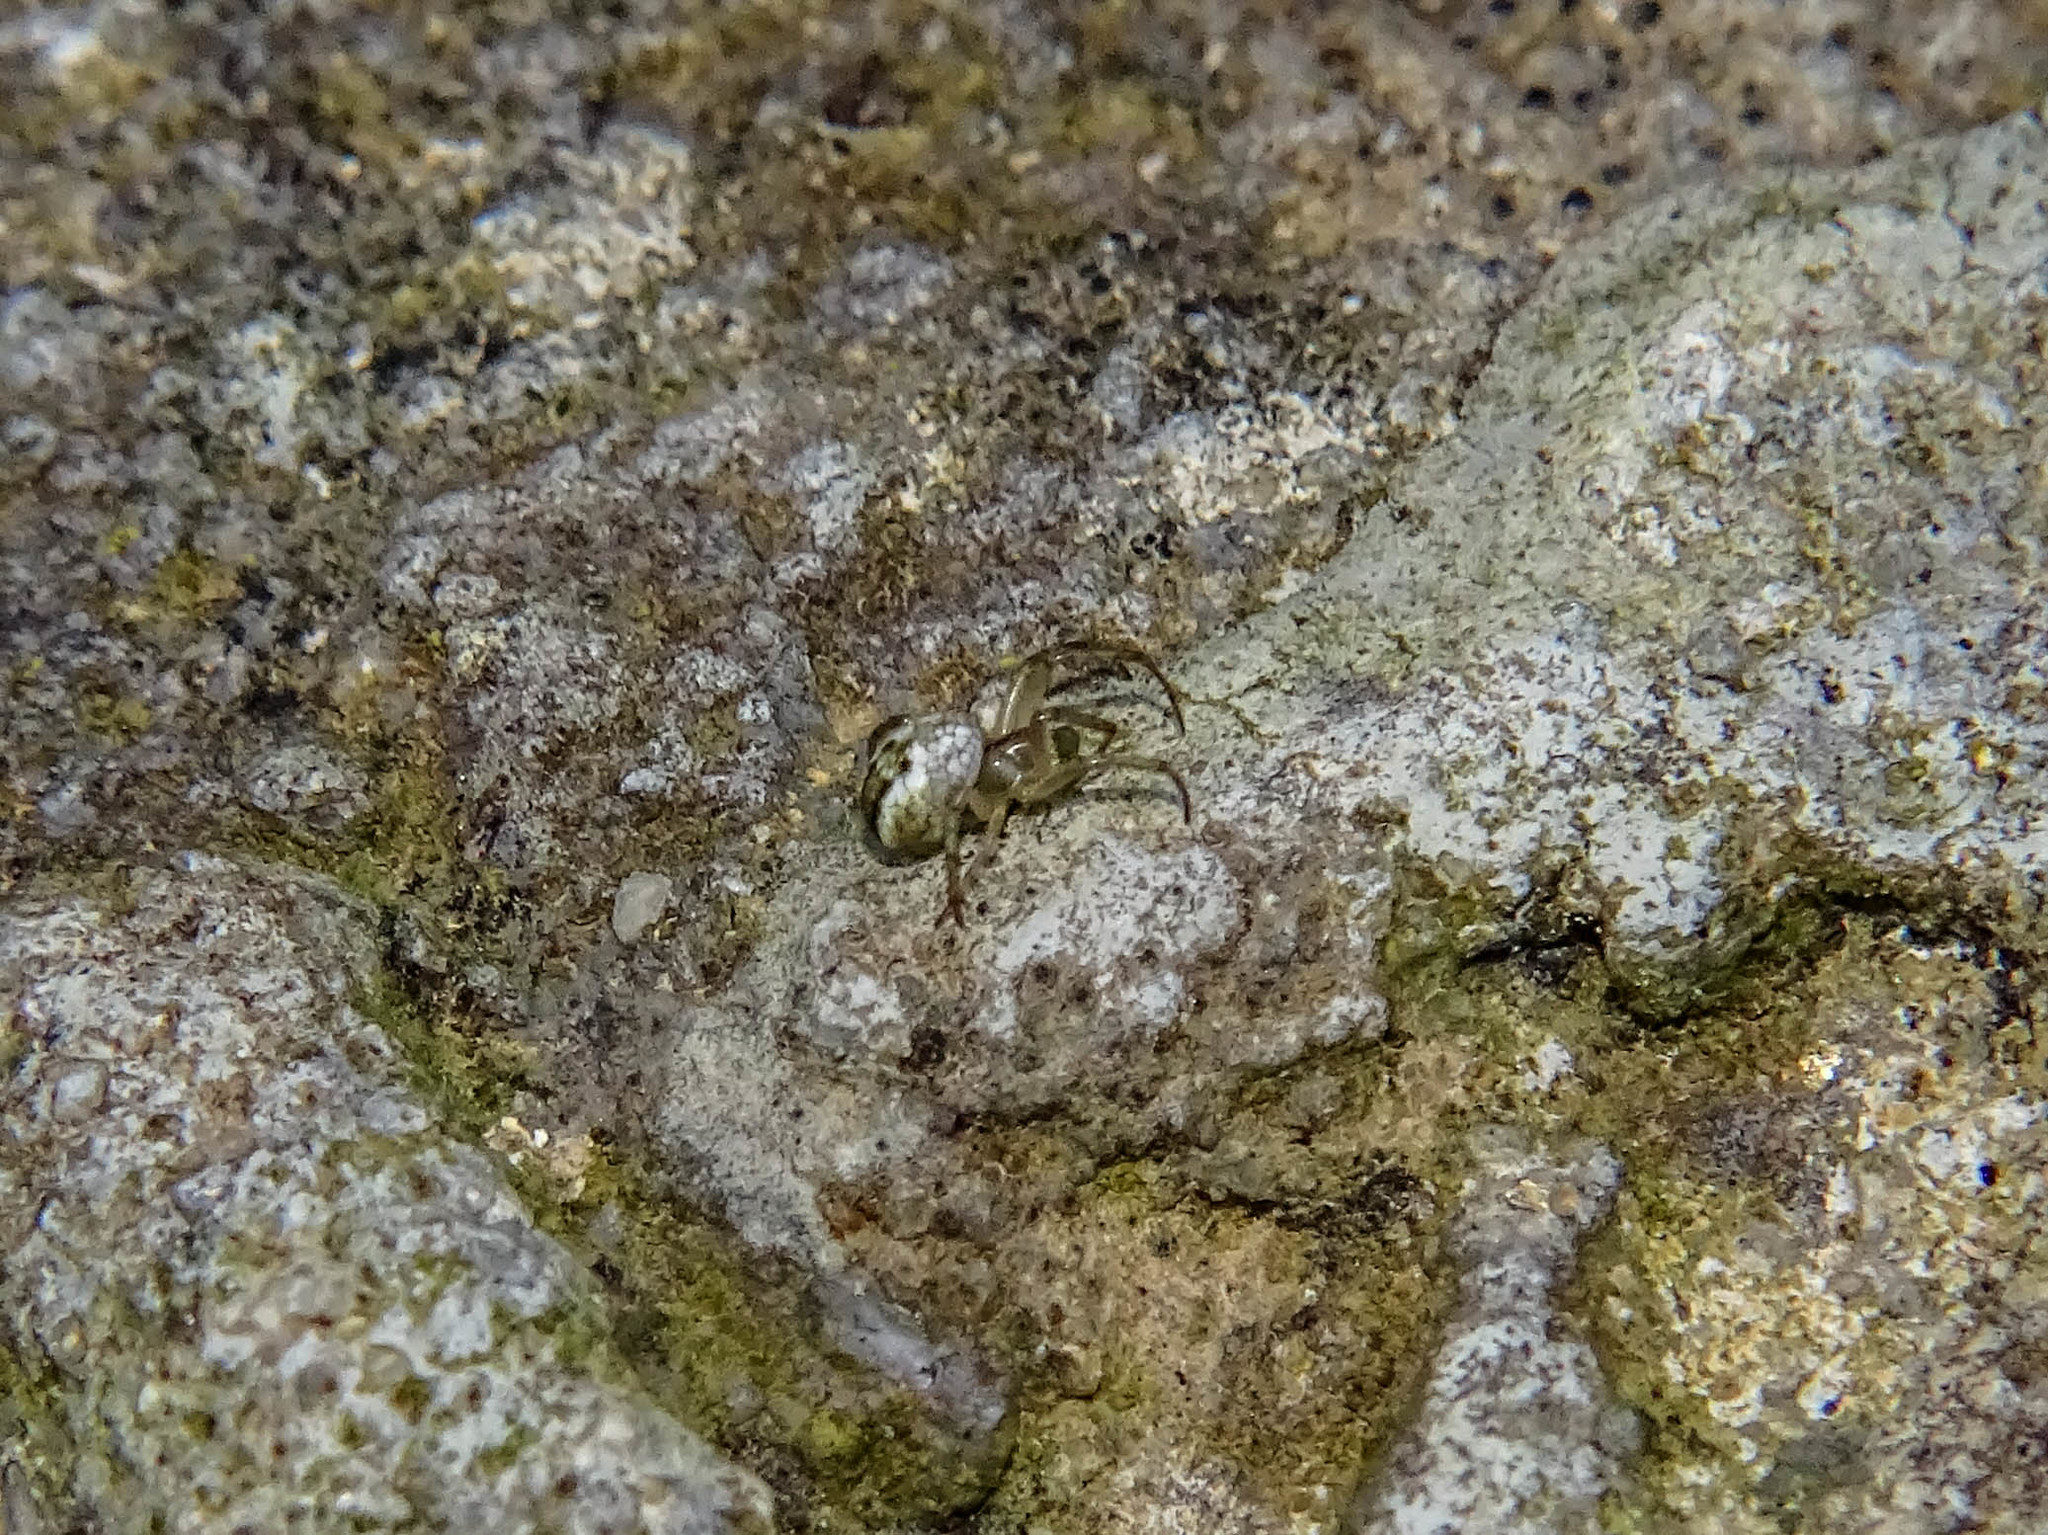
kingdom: Animalia
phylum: Arthropoda
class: Arachnida
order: Araneae
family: Araneidae
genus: Mangora
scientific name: Mangora acalypha
